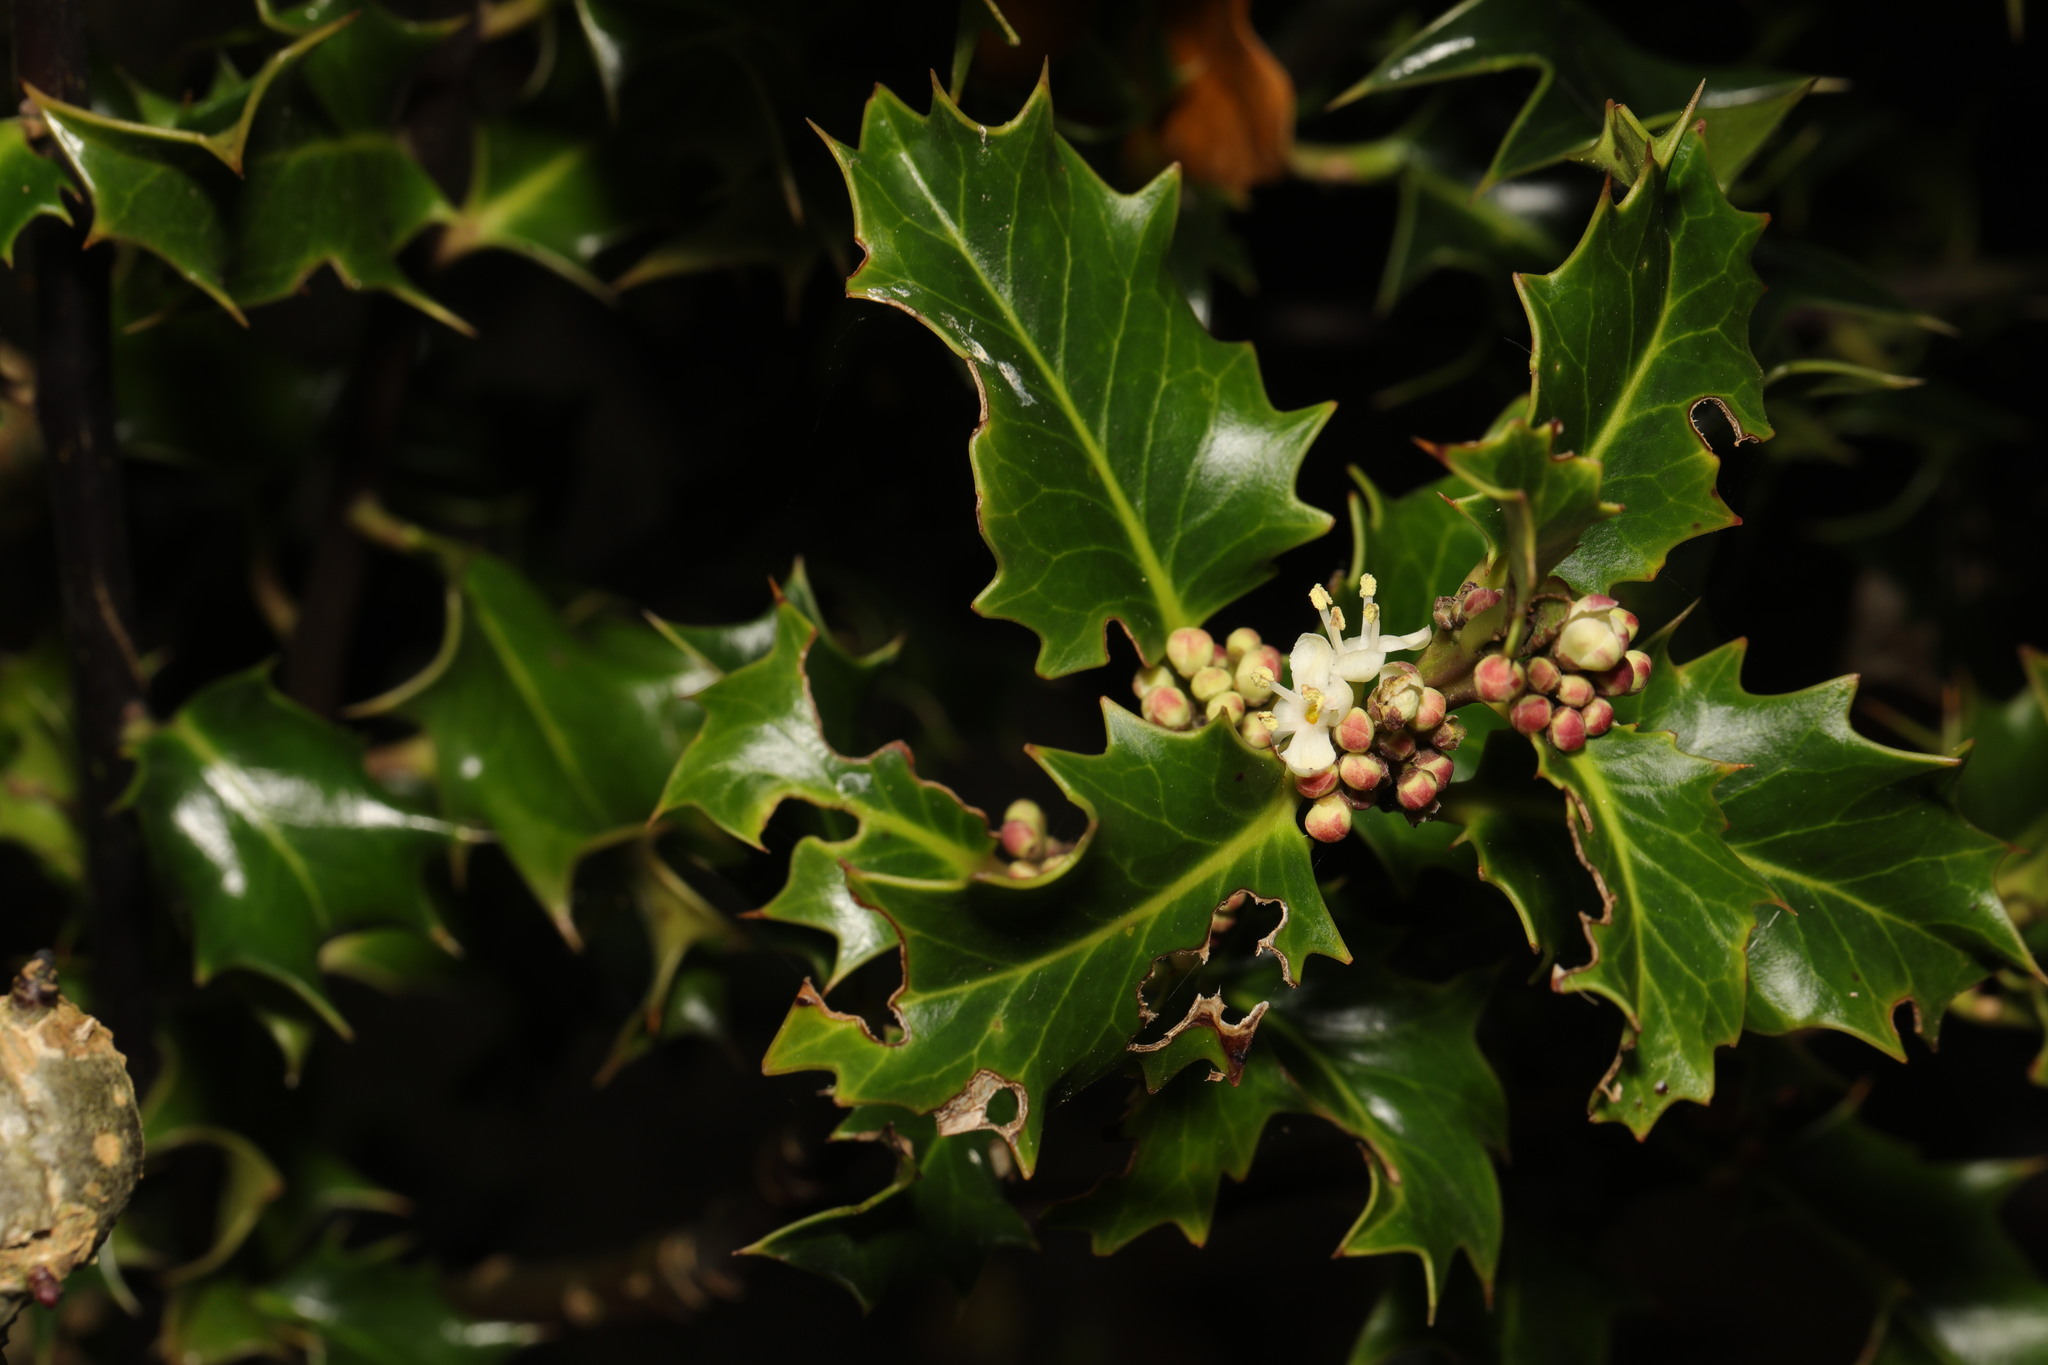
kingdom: Plantae
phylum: Tracheophyta
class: Magnoliopsida
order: Aquifoliales
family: Aquifoliaceae
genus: Ilex
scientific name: Ilex aquifolium
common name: English holly
